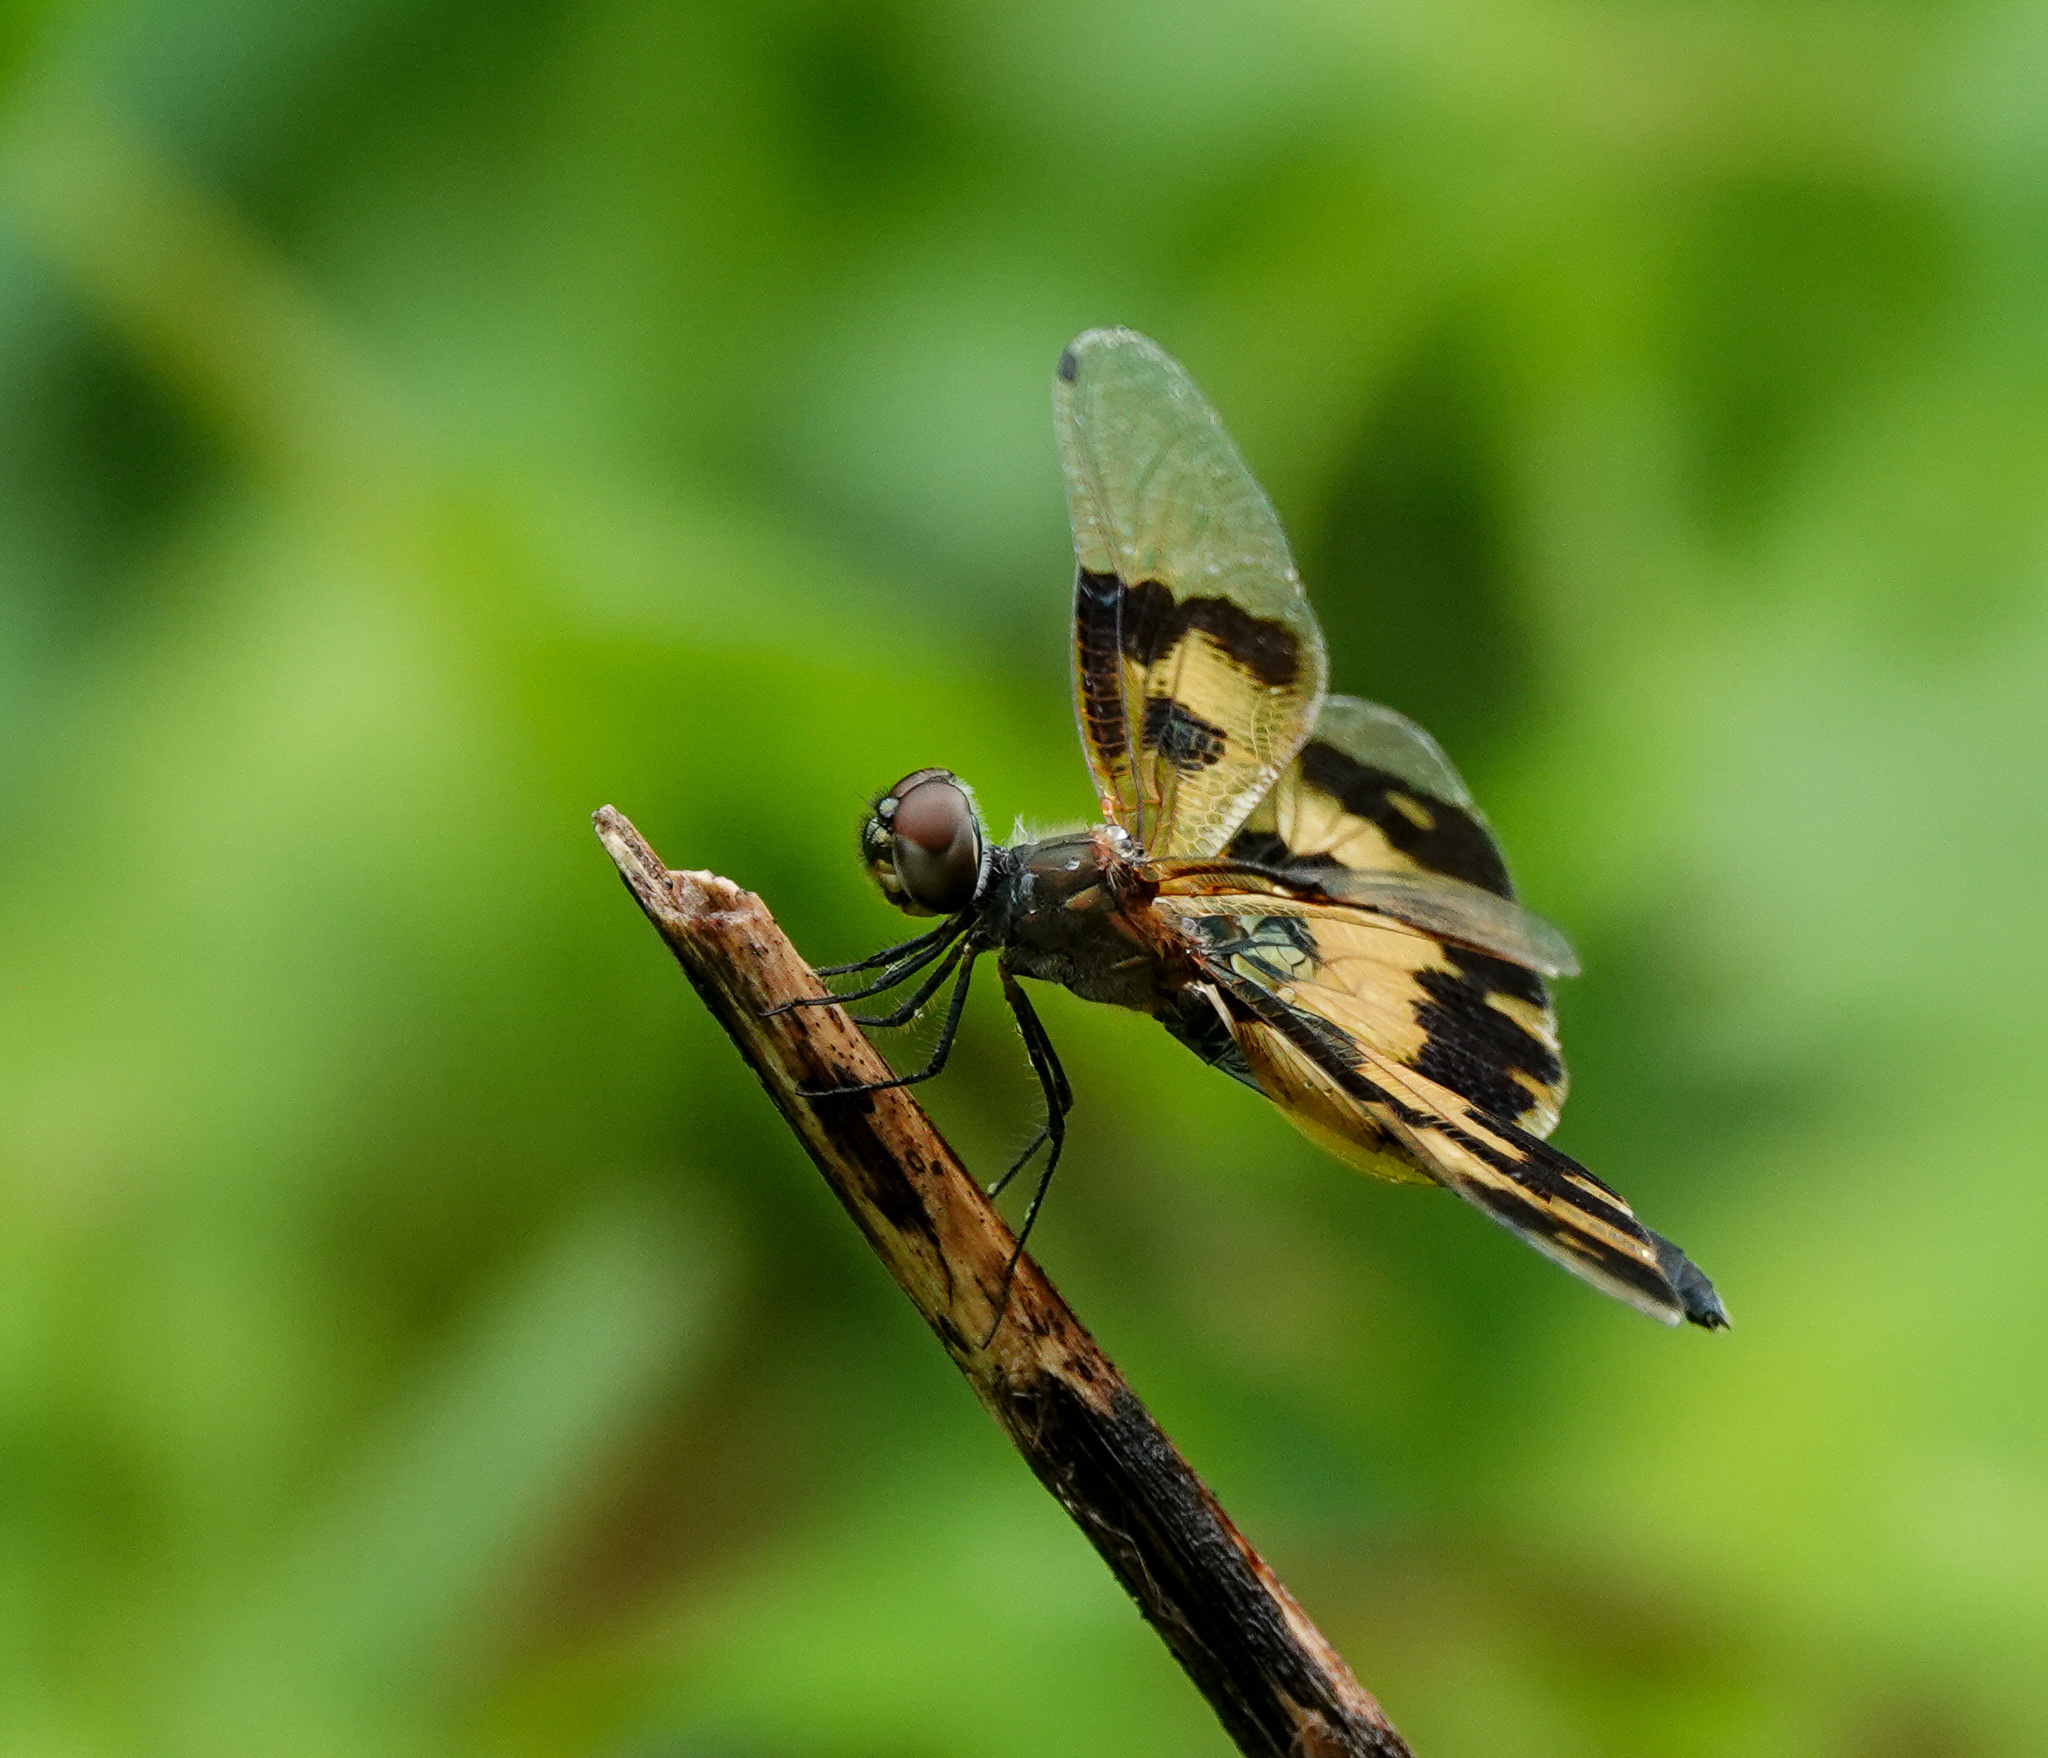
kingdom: Animalia
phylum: Arthropoda
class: Insecta
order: Odonata
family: Libellulidae
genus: Rhyothemis
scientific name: Rhyothemis variegata
